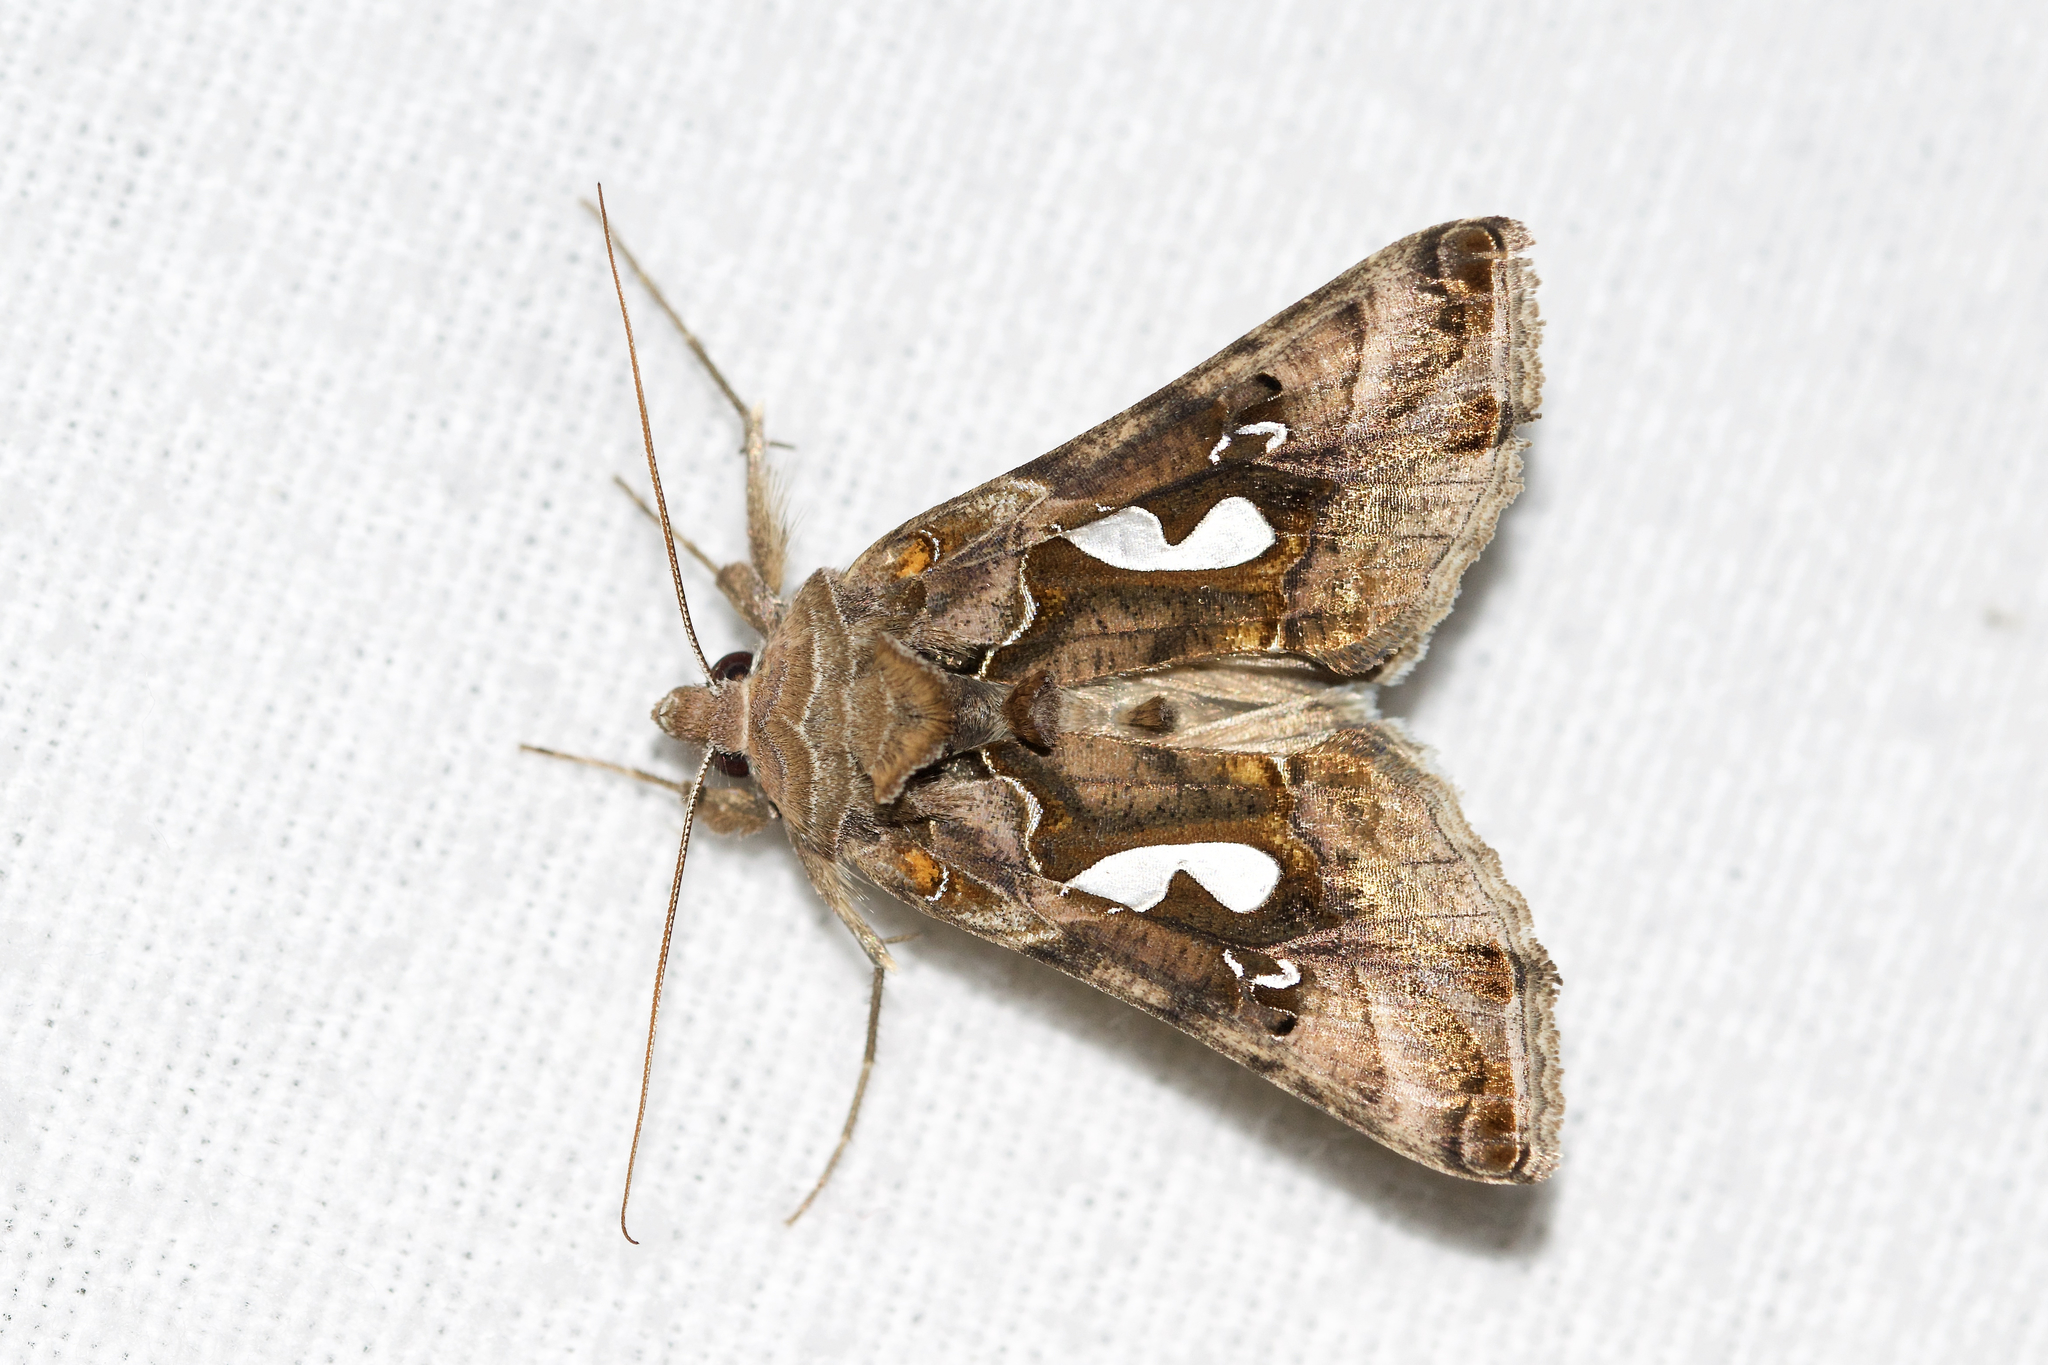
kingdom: Animalia
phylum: Arthropoda
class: Insecta
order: Lepidoptera
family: Noctuidae
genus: Megalographa
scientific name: Megalographa biloba
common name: Cutworm
